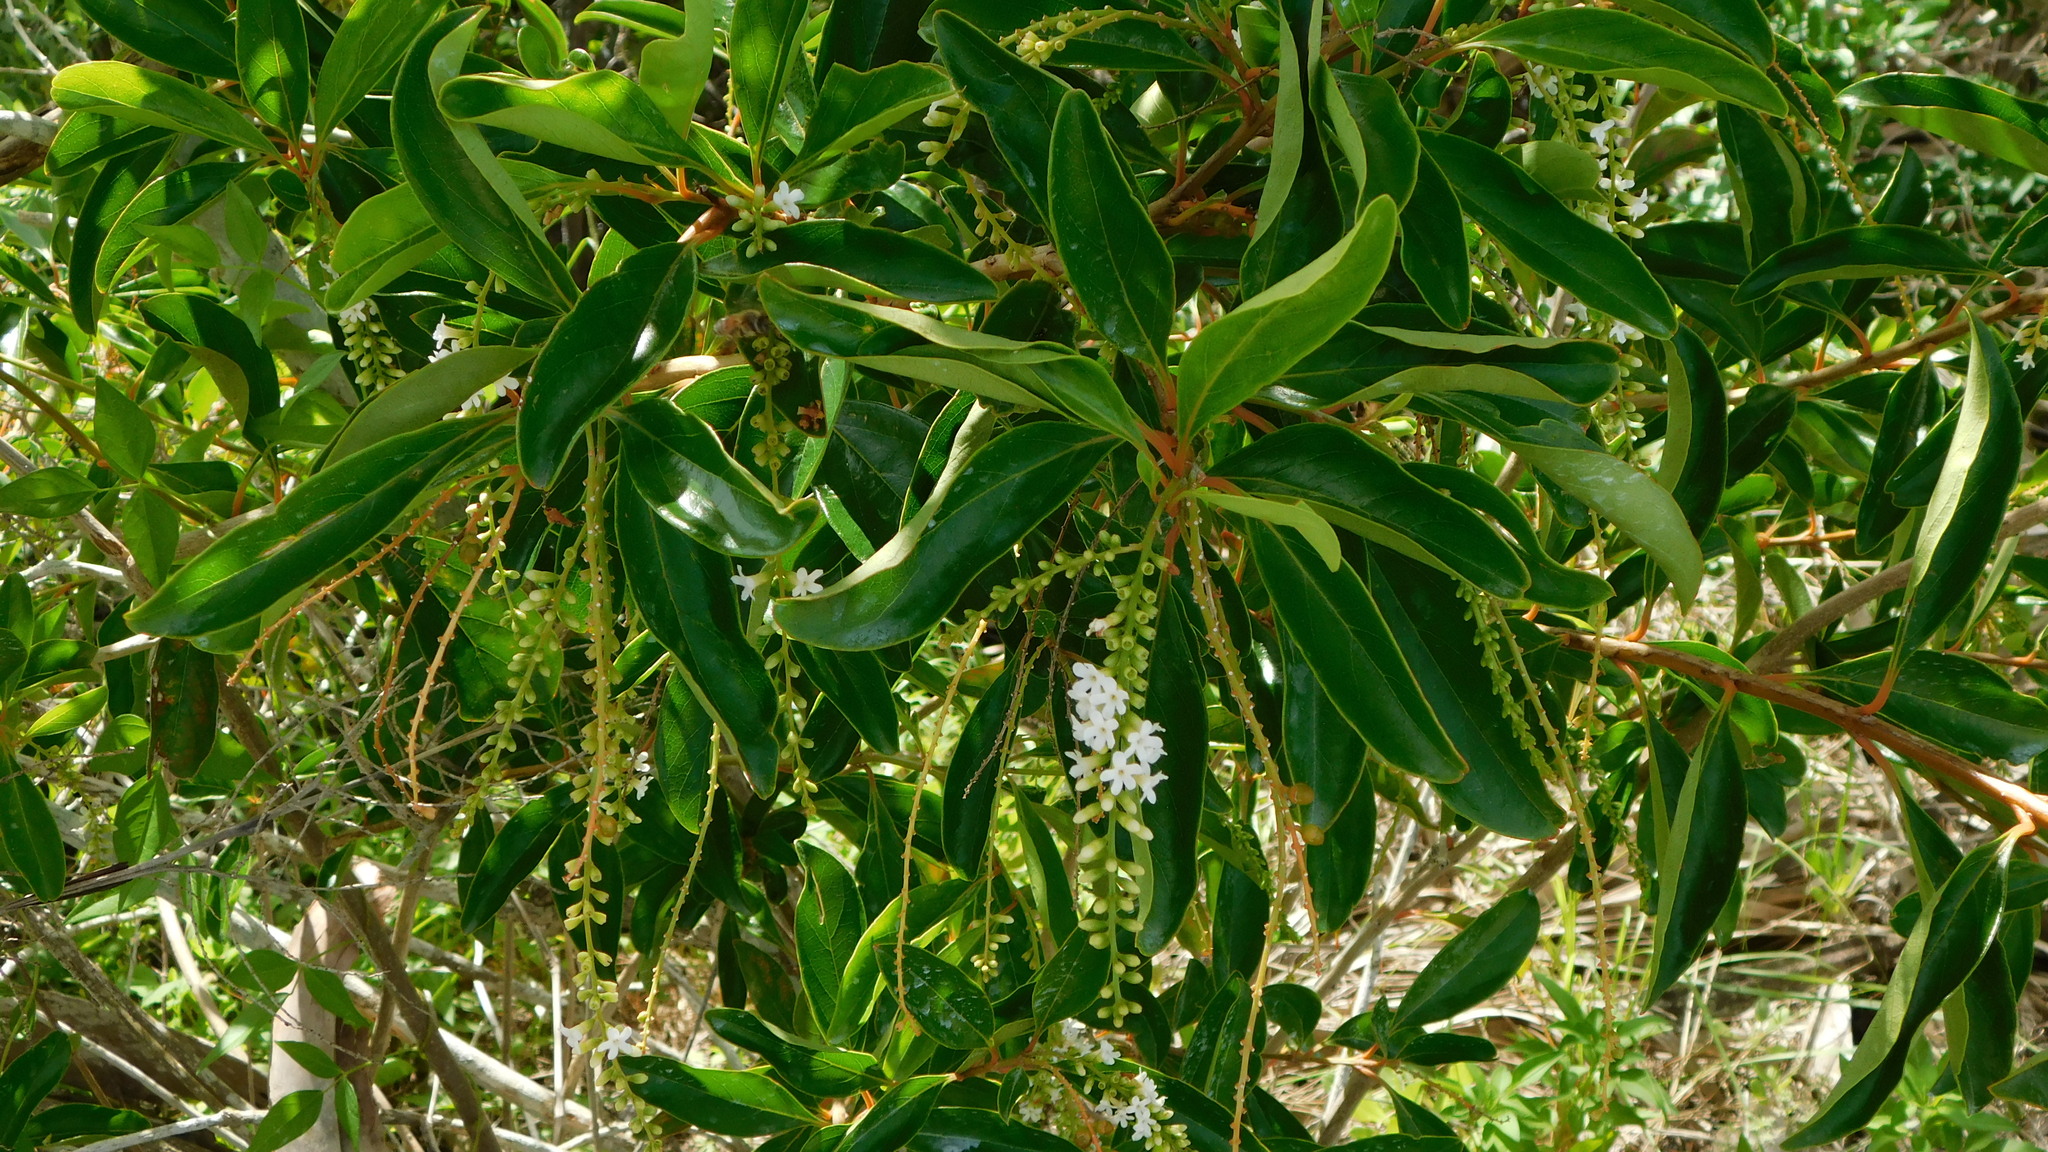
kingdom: Plantae
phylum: Tracheophyta
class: Magnoliopsida
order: Lamiales
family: Verbenaceae
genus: Citharexylum
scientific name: Citharexylum spinosum
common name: Fiddlewood
